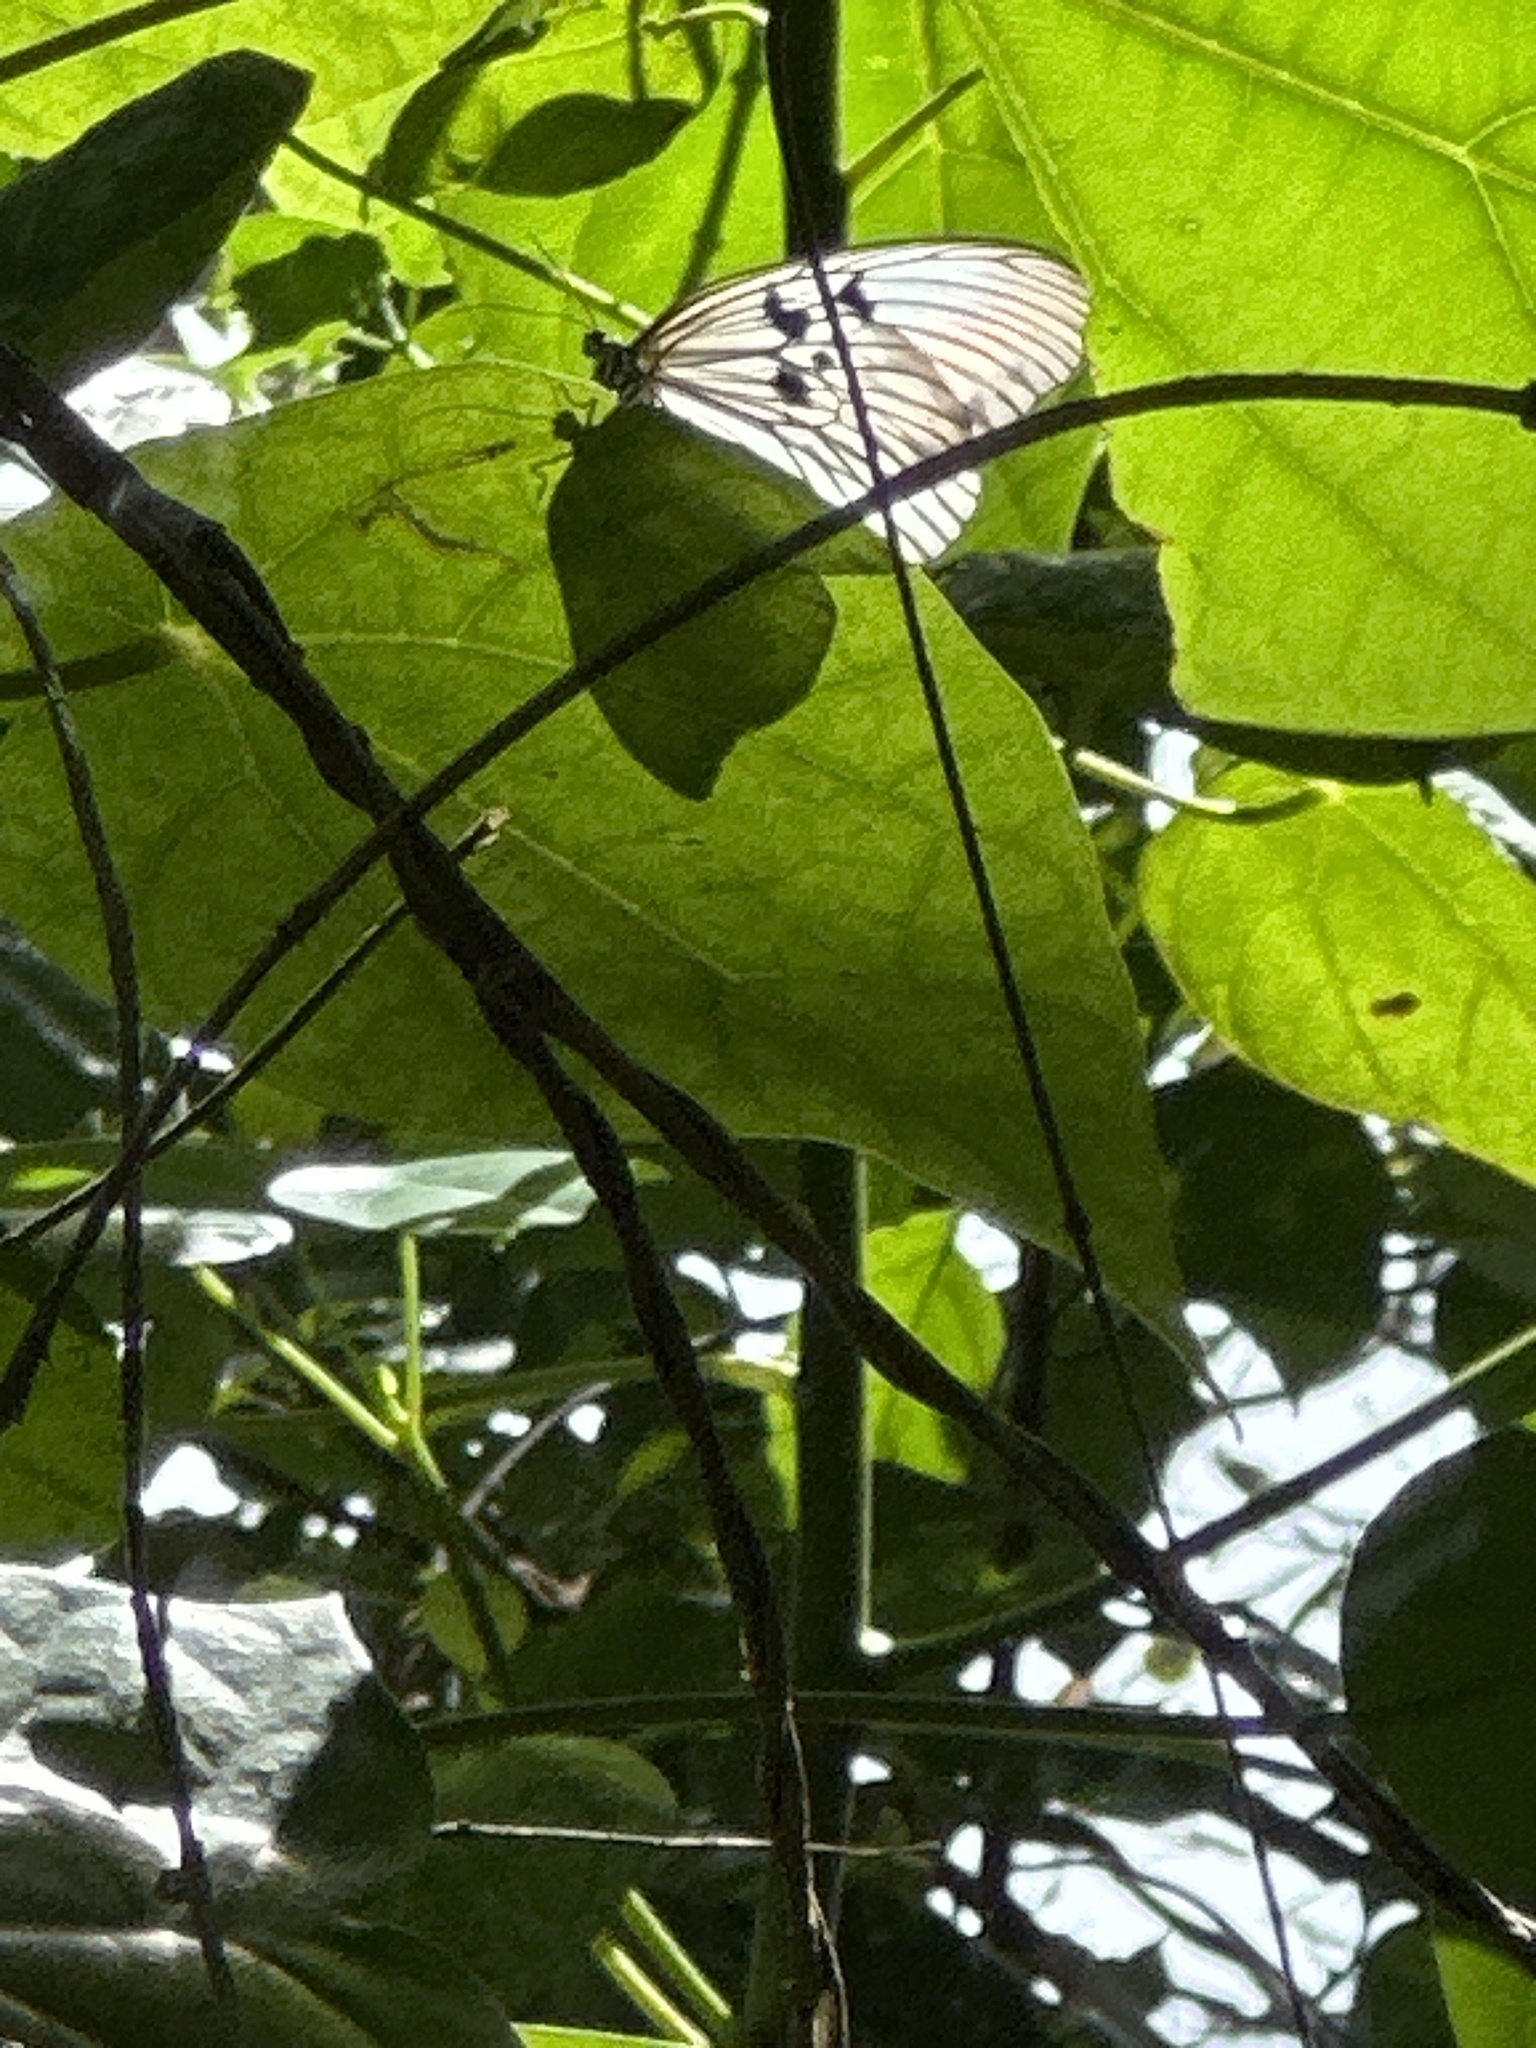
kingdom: Animalia
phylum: Arthropoda
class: Insecta
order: Lepidoptera
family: Nymphalidae
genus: Idea
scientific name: Idea blanchardii
